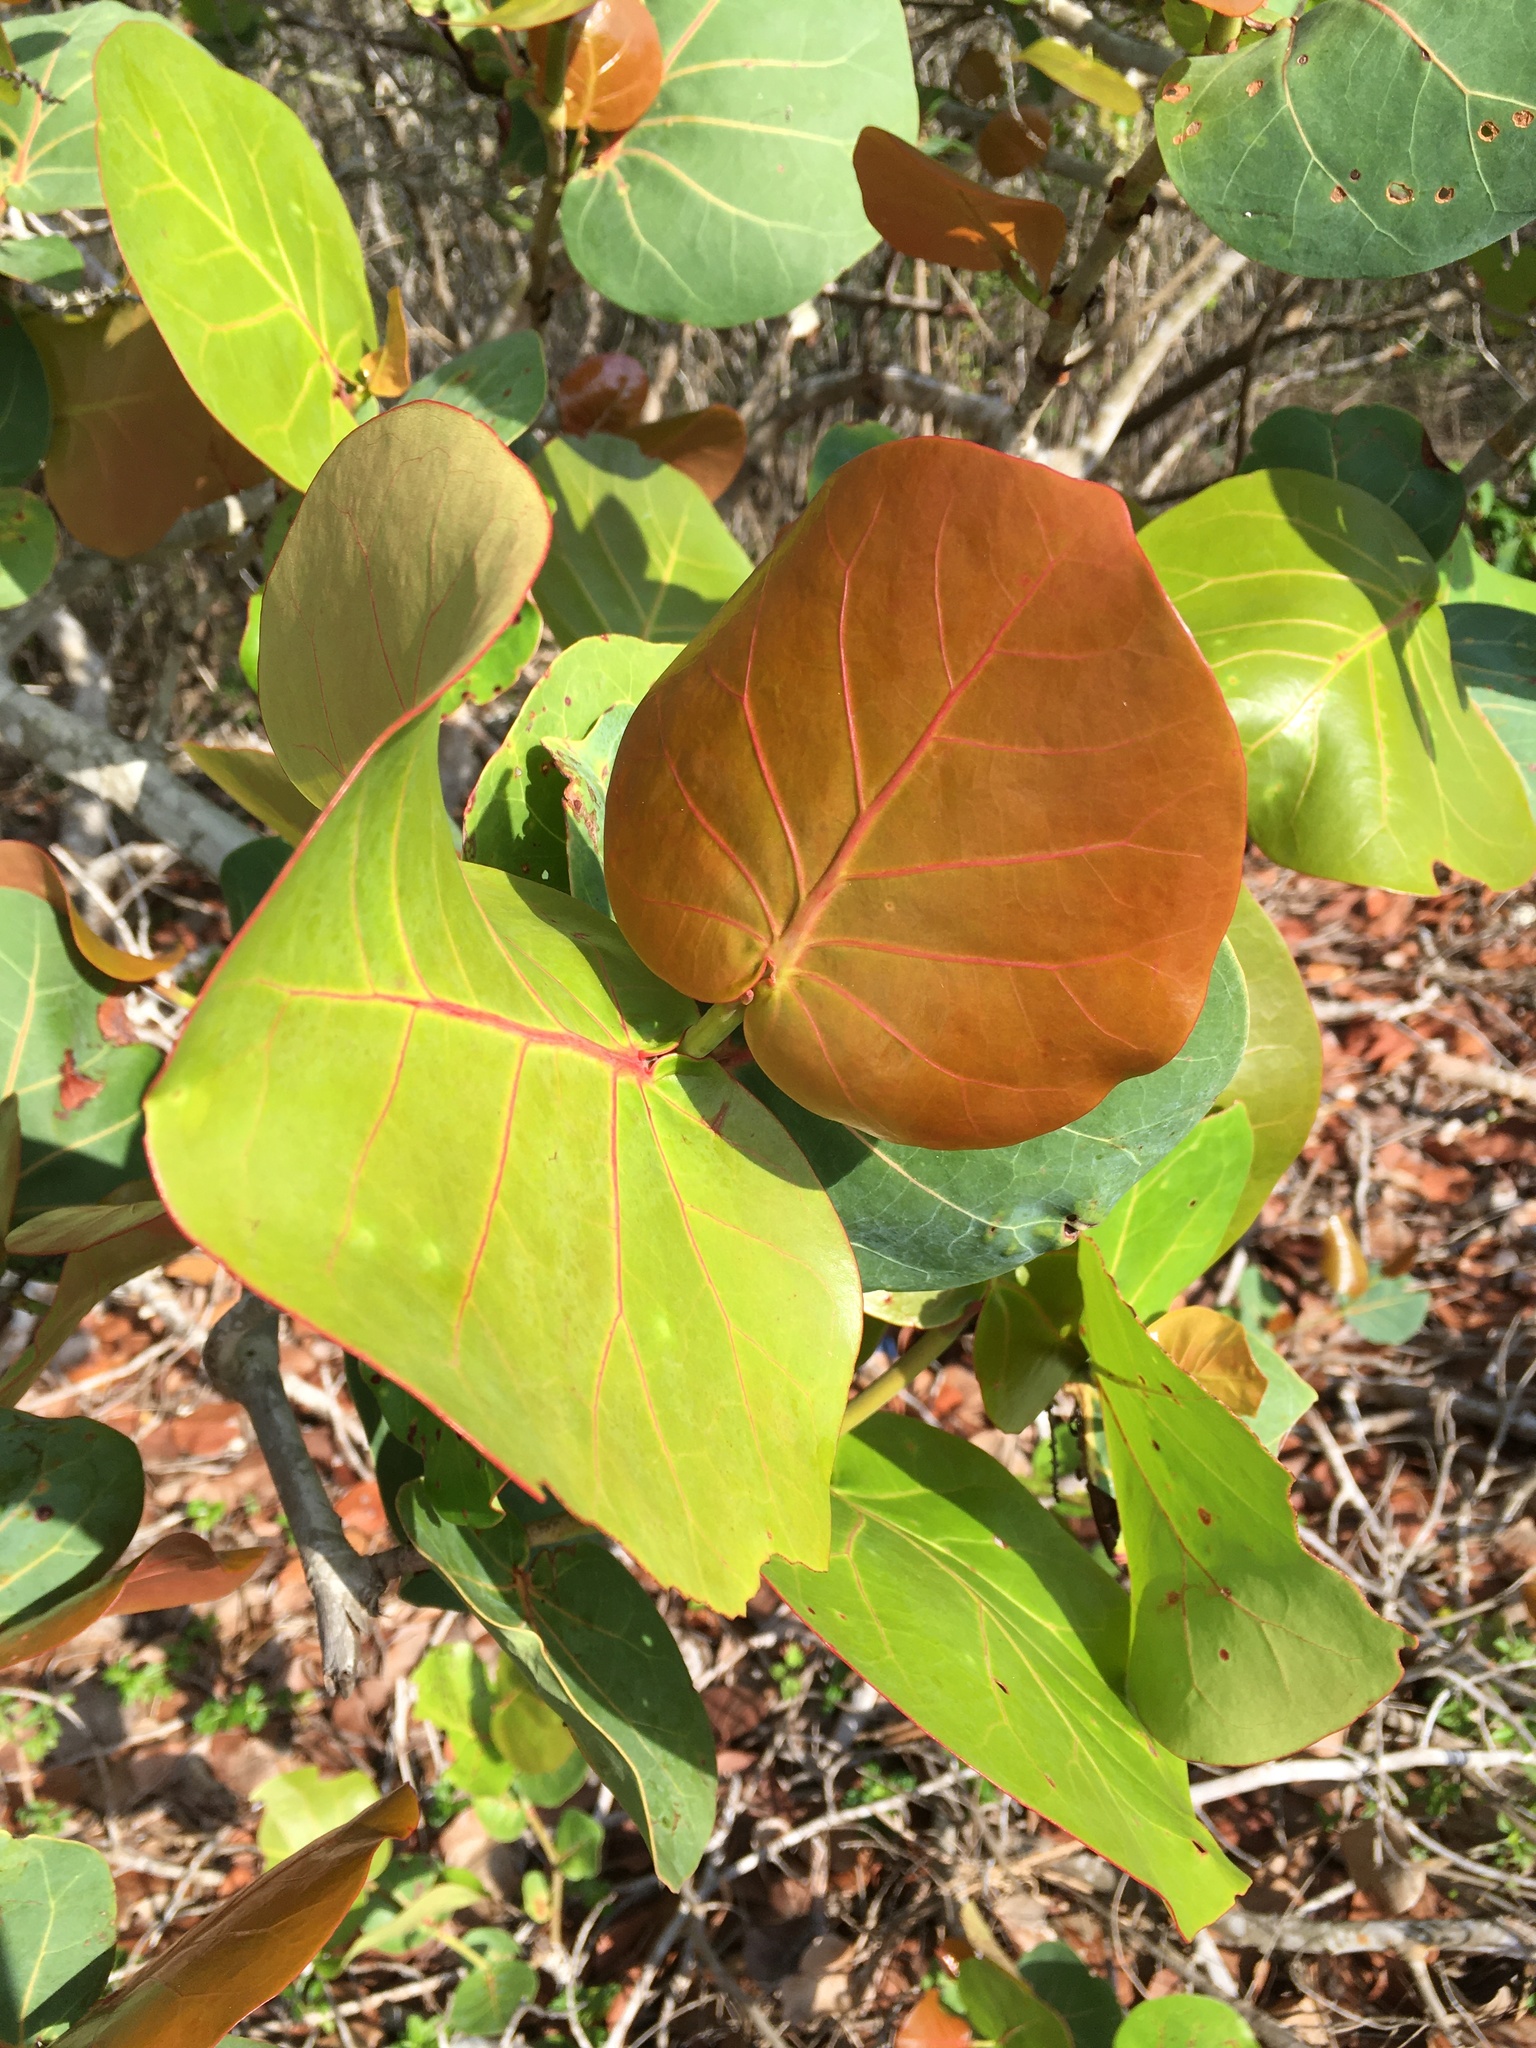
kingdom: Plantae
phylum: Tracheophyta
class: Magnoliopsida
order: Caryophyllales
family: Polygonaceae
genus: Coccoloba
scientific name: Coccoloba uvifera
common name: Seagrape
